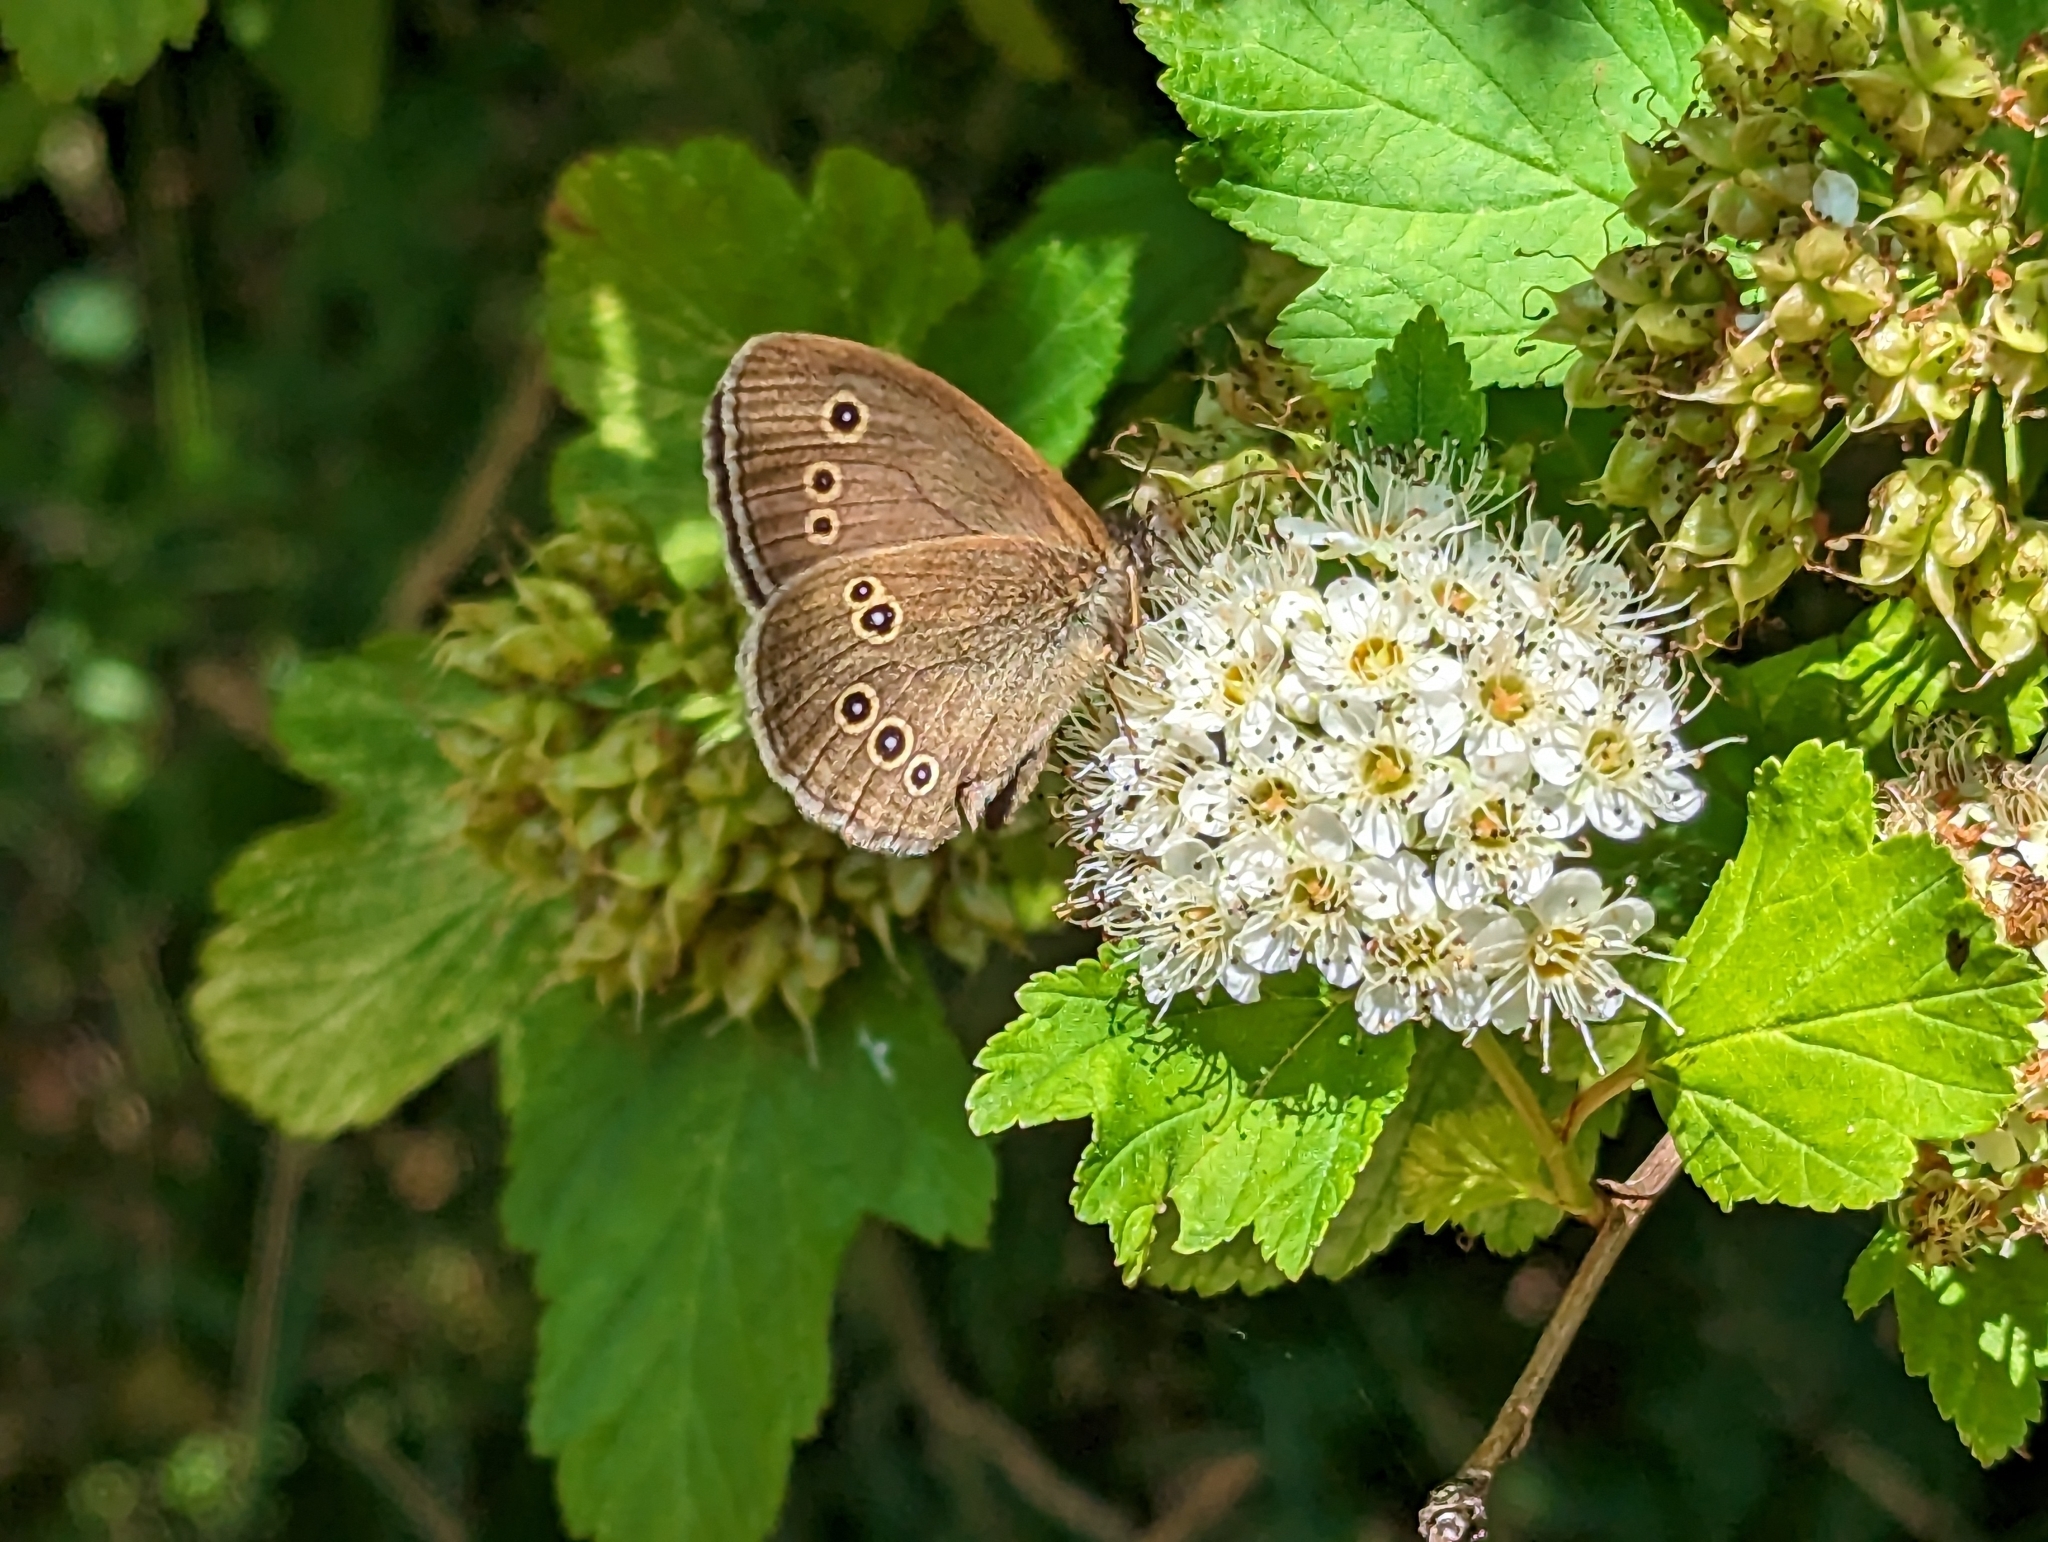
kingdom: Animalia
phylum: Arthropoda
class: Insecta
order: Lepidoptera
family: Nymphalidae
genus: Aphantopus
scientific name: Aphantopus hyperantus
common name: Ringlet
